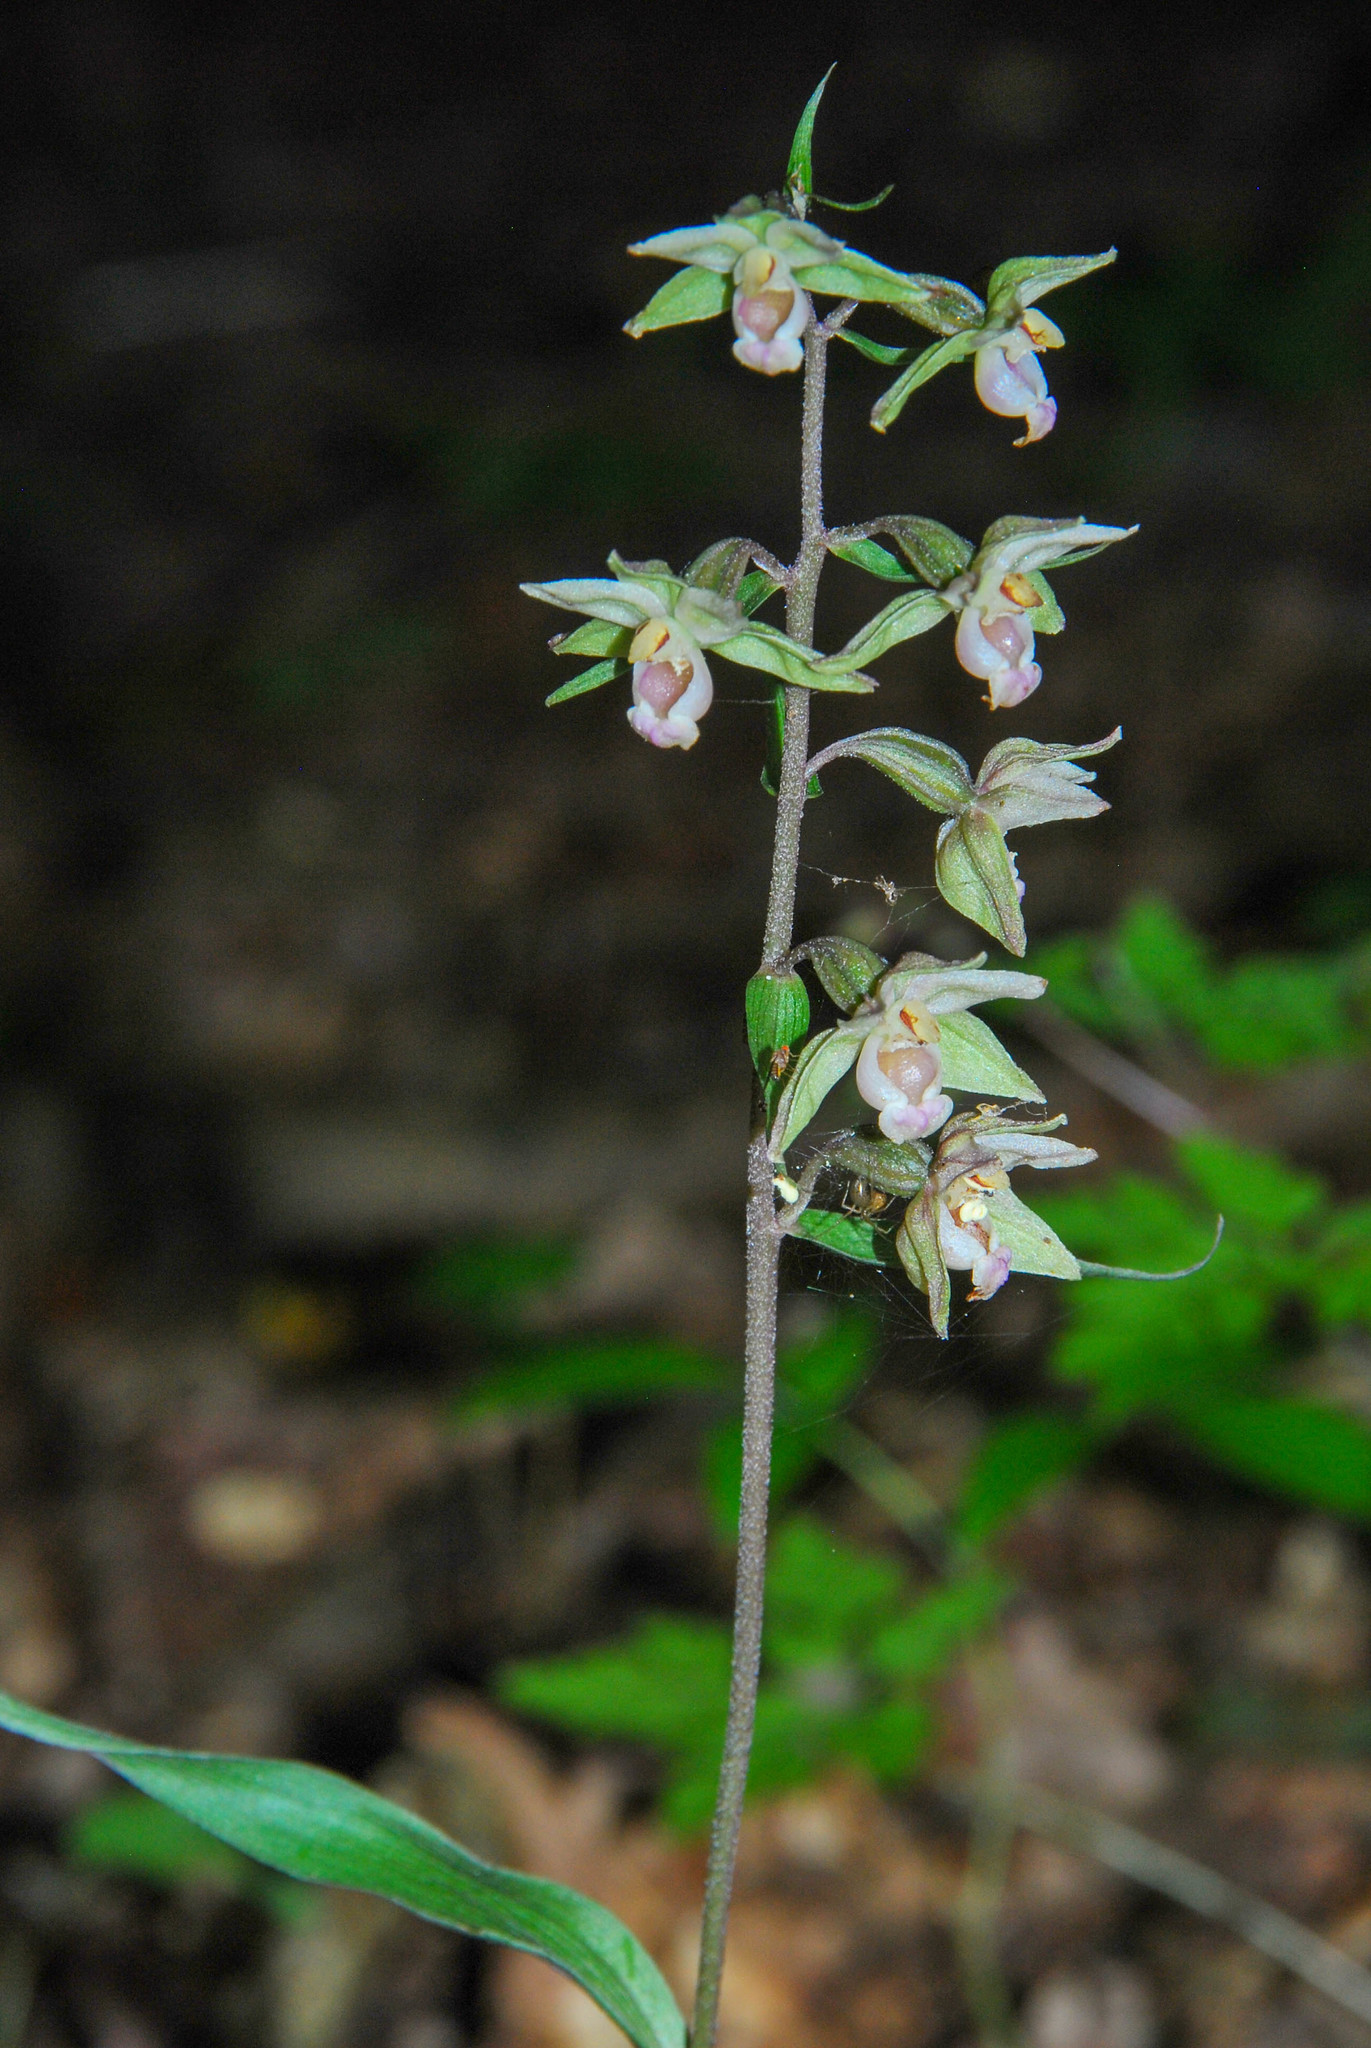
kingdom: Plantae
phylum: Tracheophyta
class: Liliopsida
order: Asparagales
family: Orchidaceae
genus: Epipactis
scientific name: Epipactis purpurata
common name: Violet helleborine
